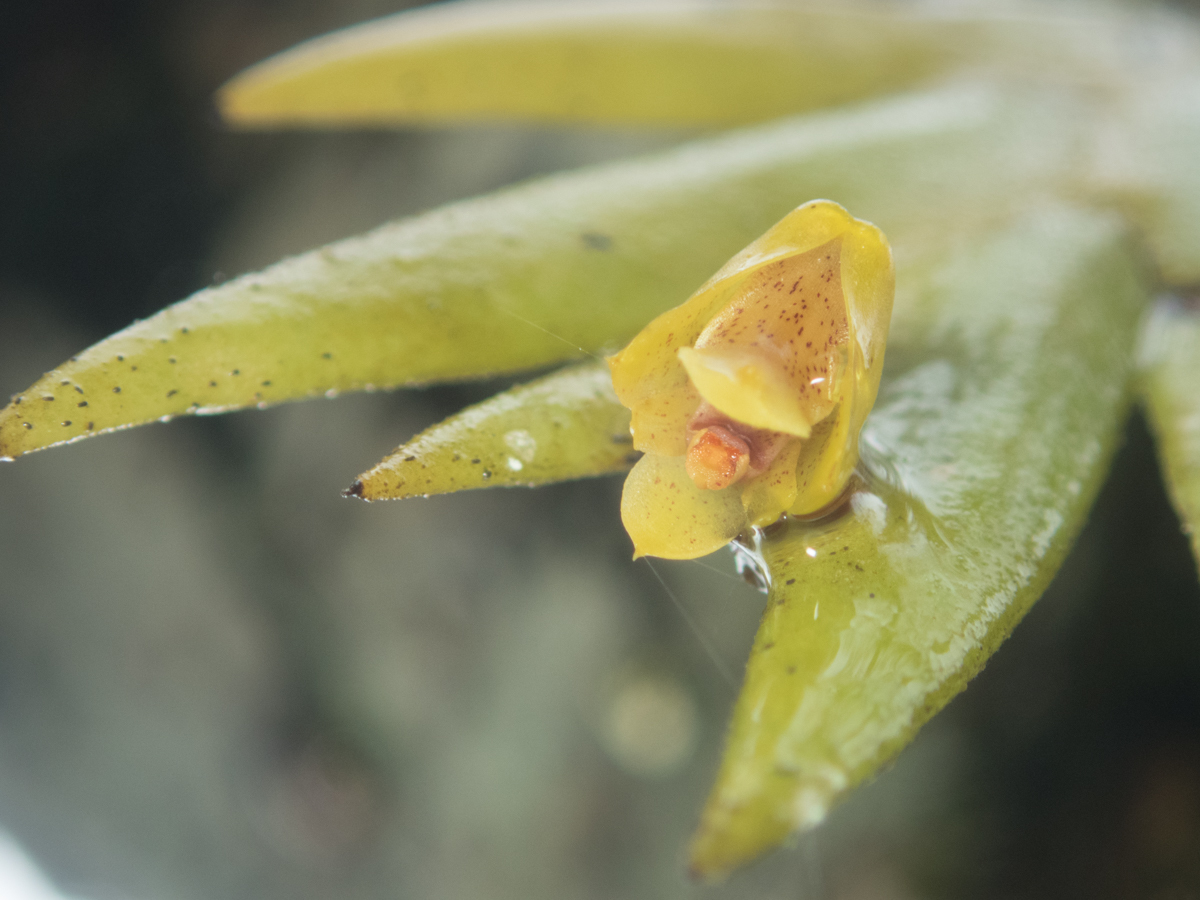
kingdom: Plantae
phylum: Tracheophyta
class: Liliopsida
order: Asparagales
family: Orchidaceae
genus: Oxystophyllum
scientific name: Oxystophyllum carnosum
